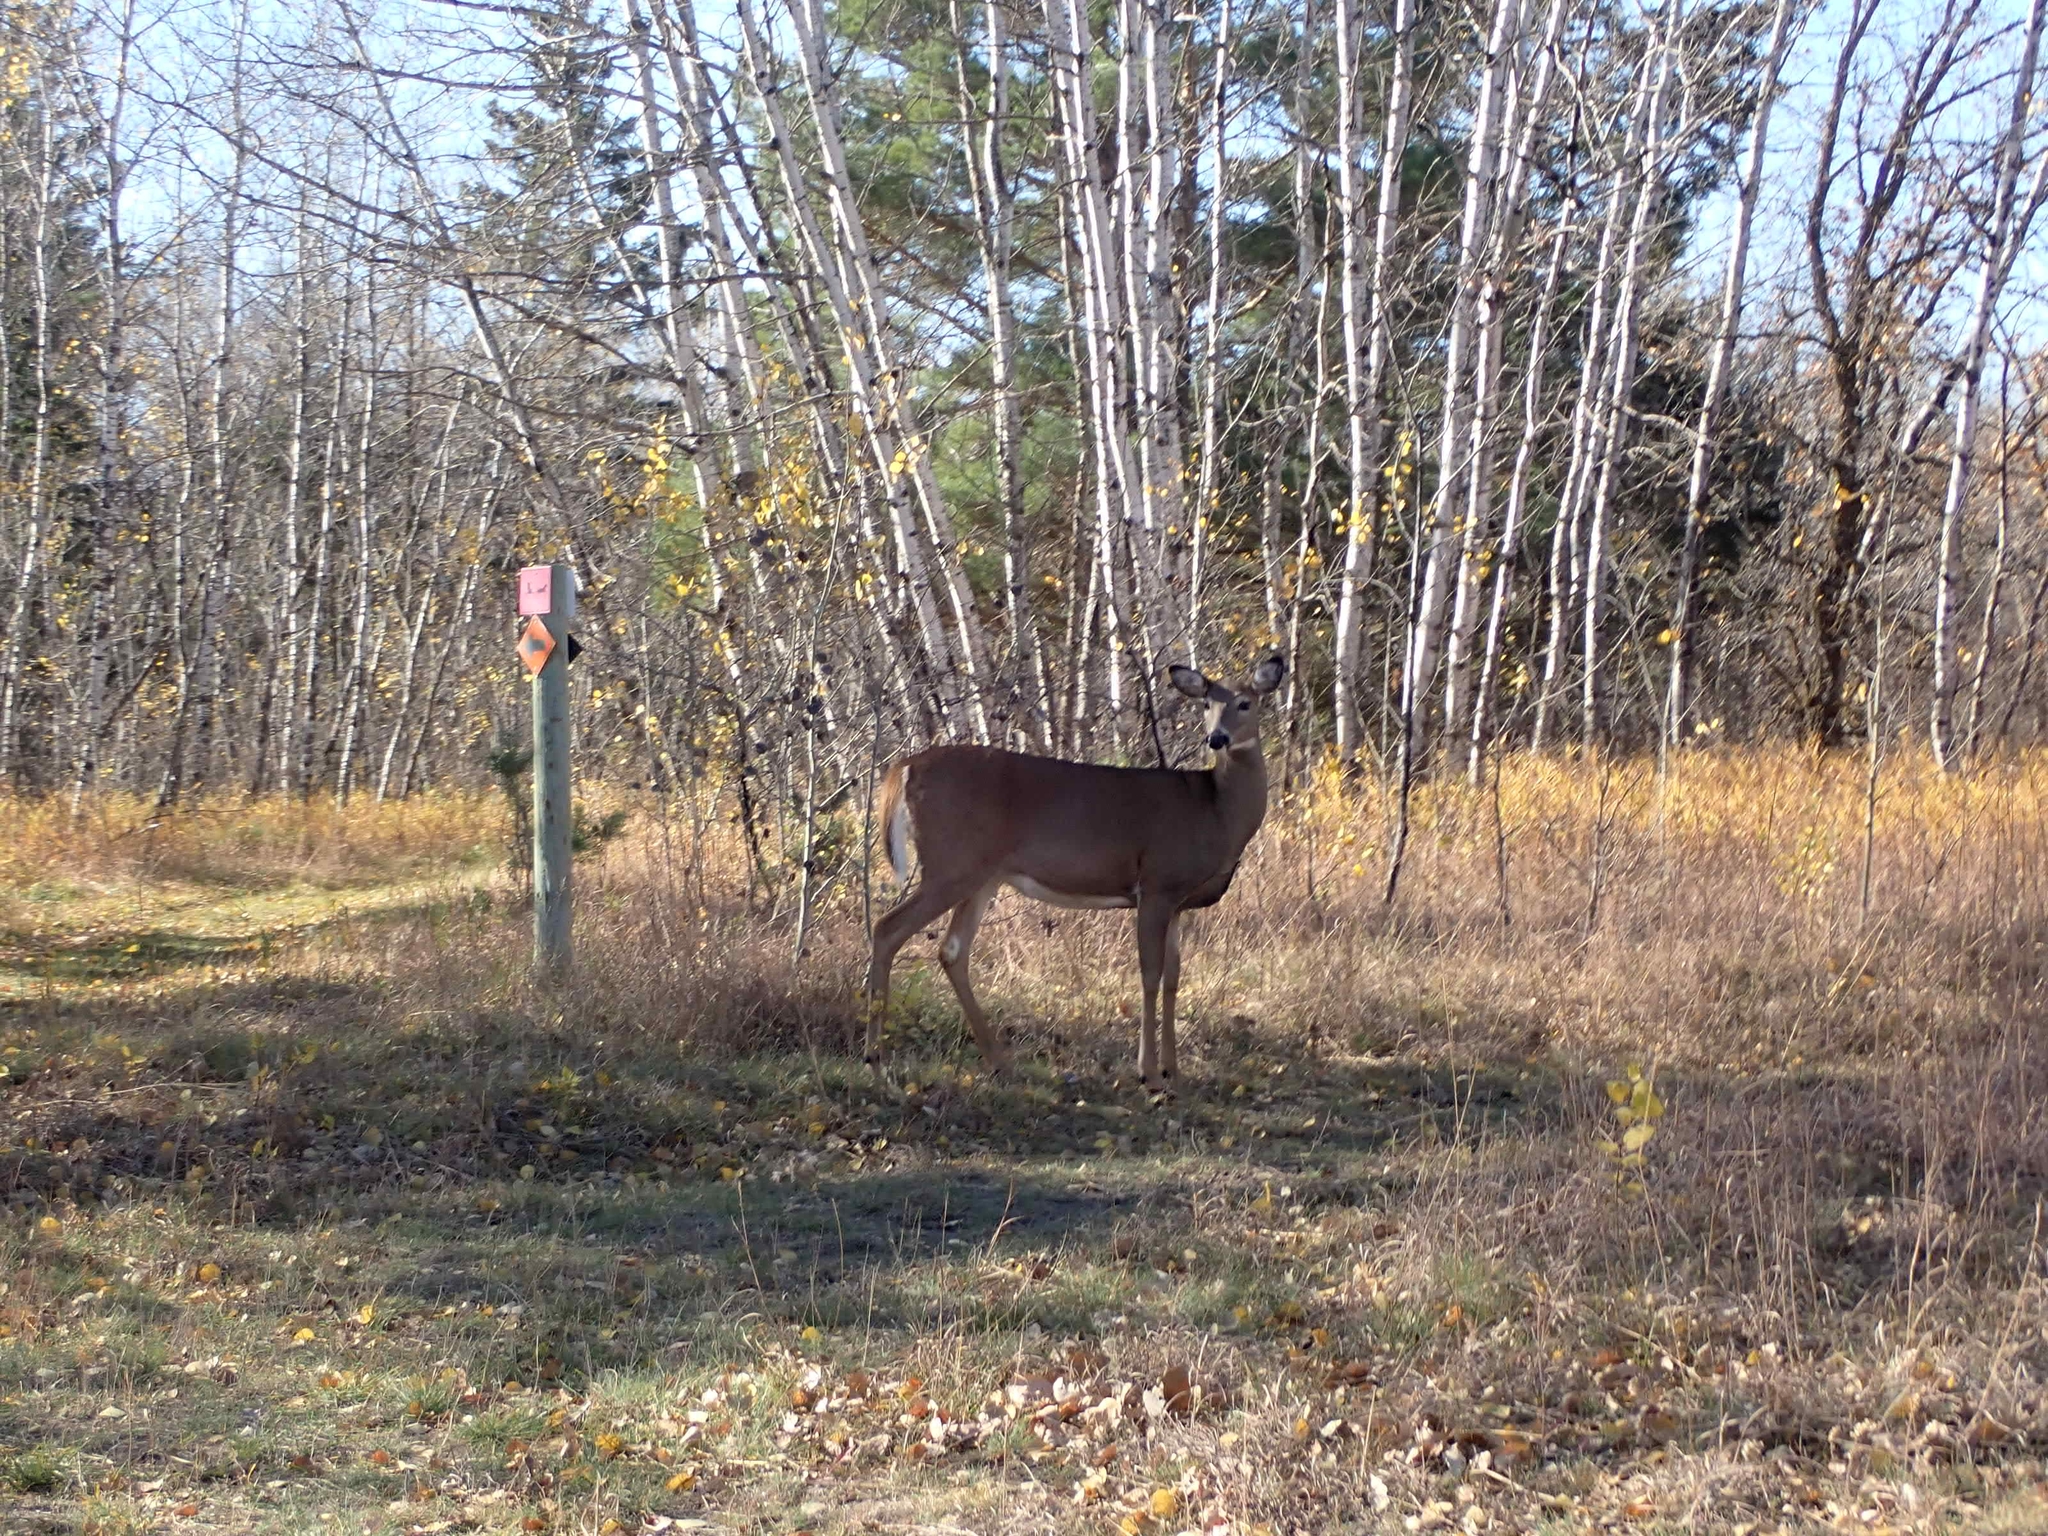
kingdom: Animalia
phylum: Chordata
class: Mammalia
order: Artiodactyla
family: Cervidae
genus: Odocoileus
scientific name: Odocoileus virginianus
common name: White-tailed deer
